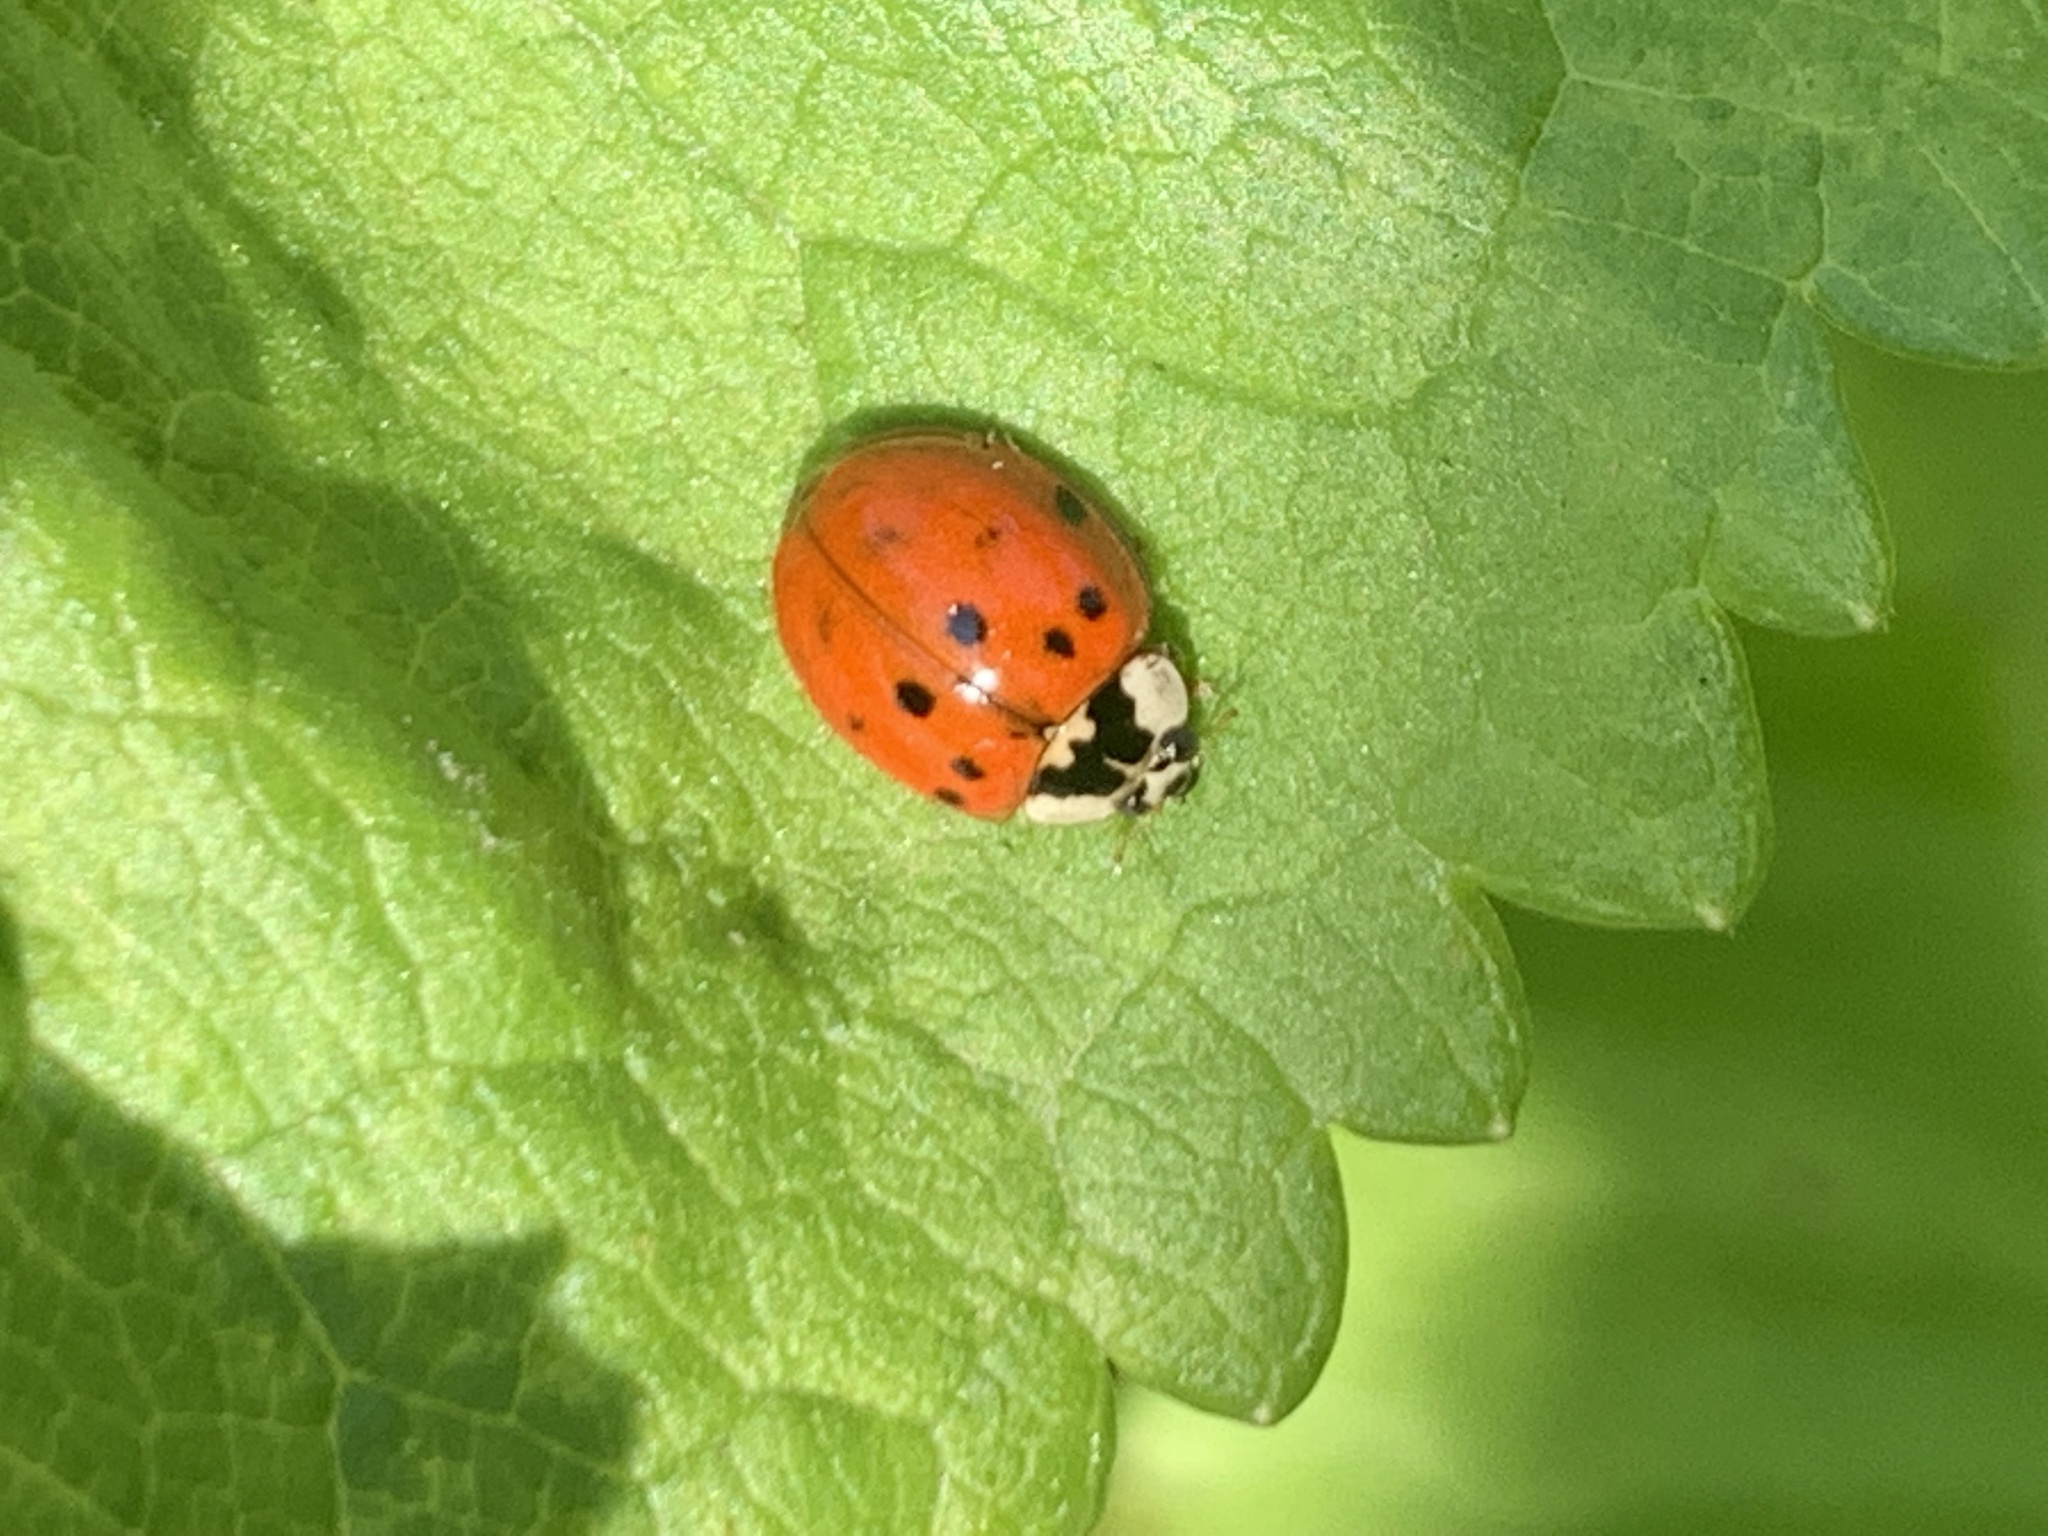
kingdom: Animalia
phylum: Arthropoda
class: Insecta
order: Coleoptera
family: Coccinellidae
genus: Harmonia
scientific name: Harmonia axyridis
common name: Harlequin ladybird
